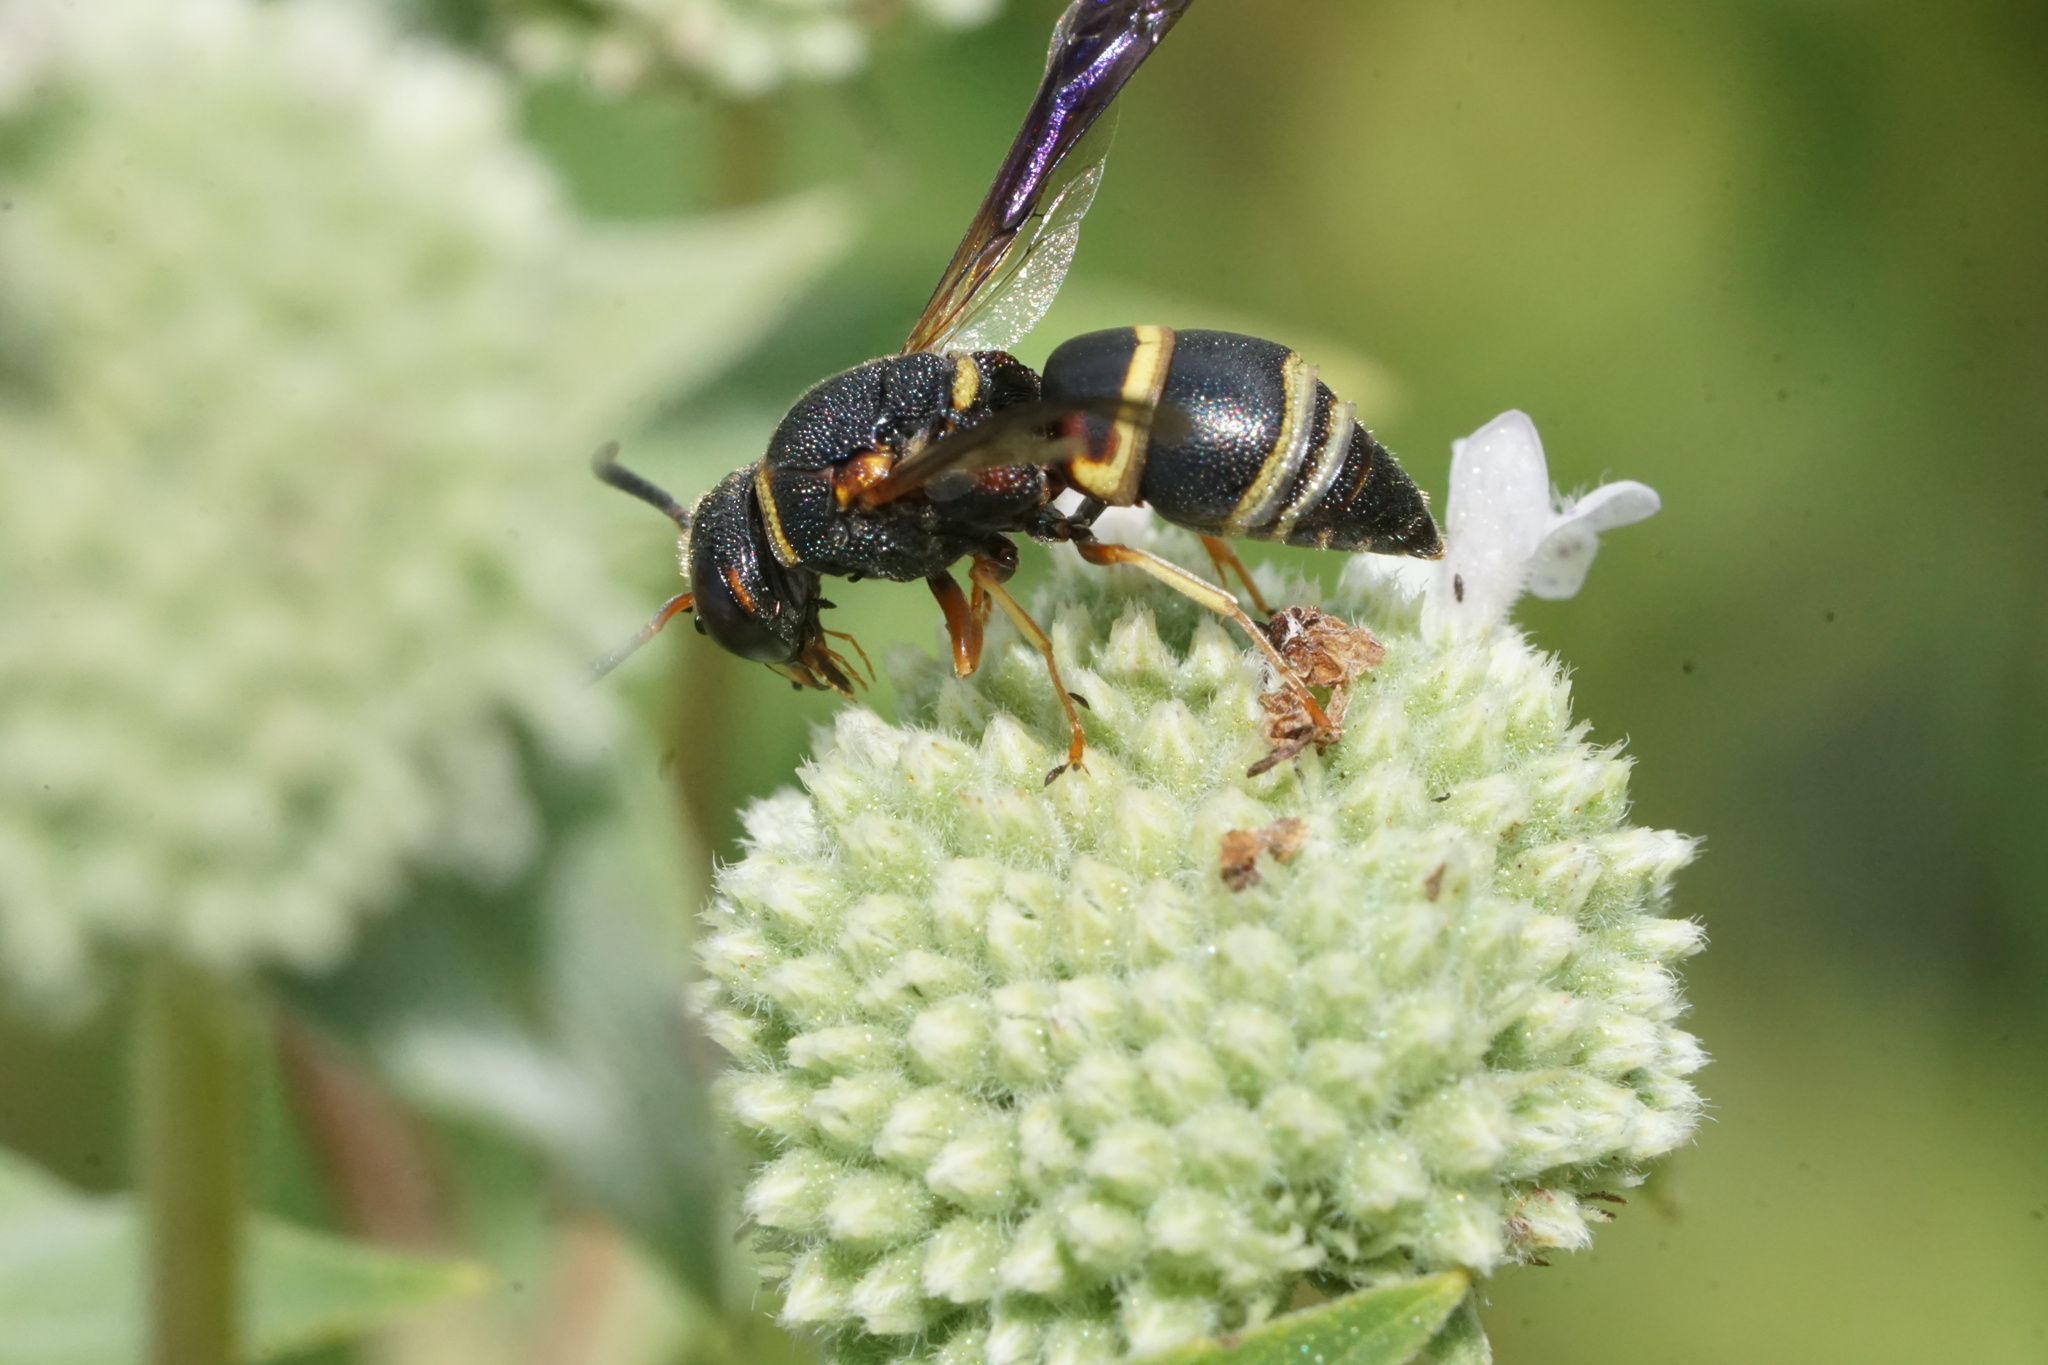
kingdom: Animalia
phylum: Arthropoda
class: Insecta
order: Hymenoptera
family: Eumenidae
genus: Euodynerus
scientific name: Euodynerus hidalgo
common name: Wasp
